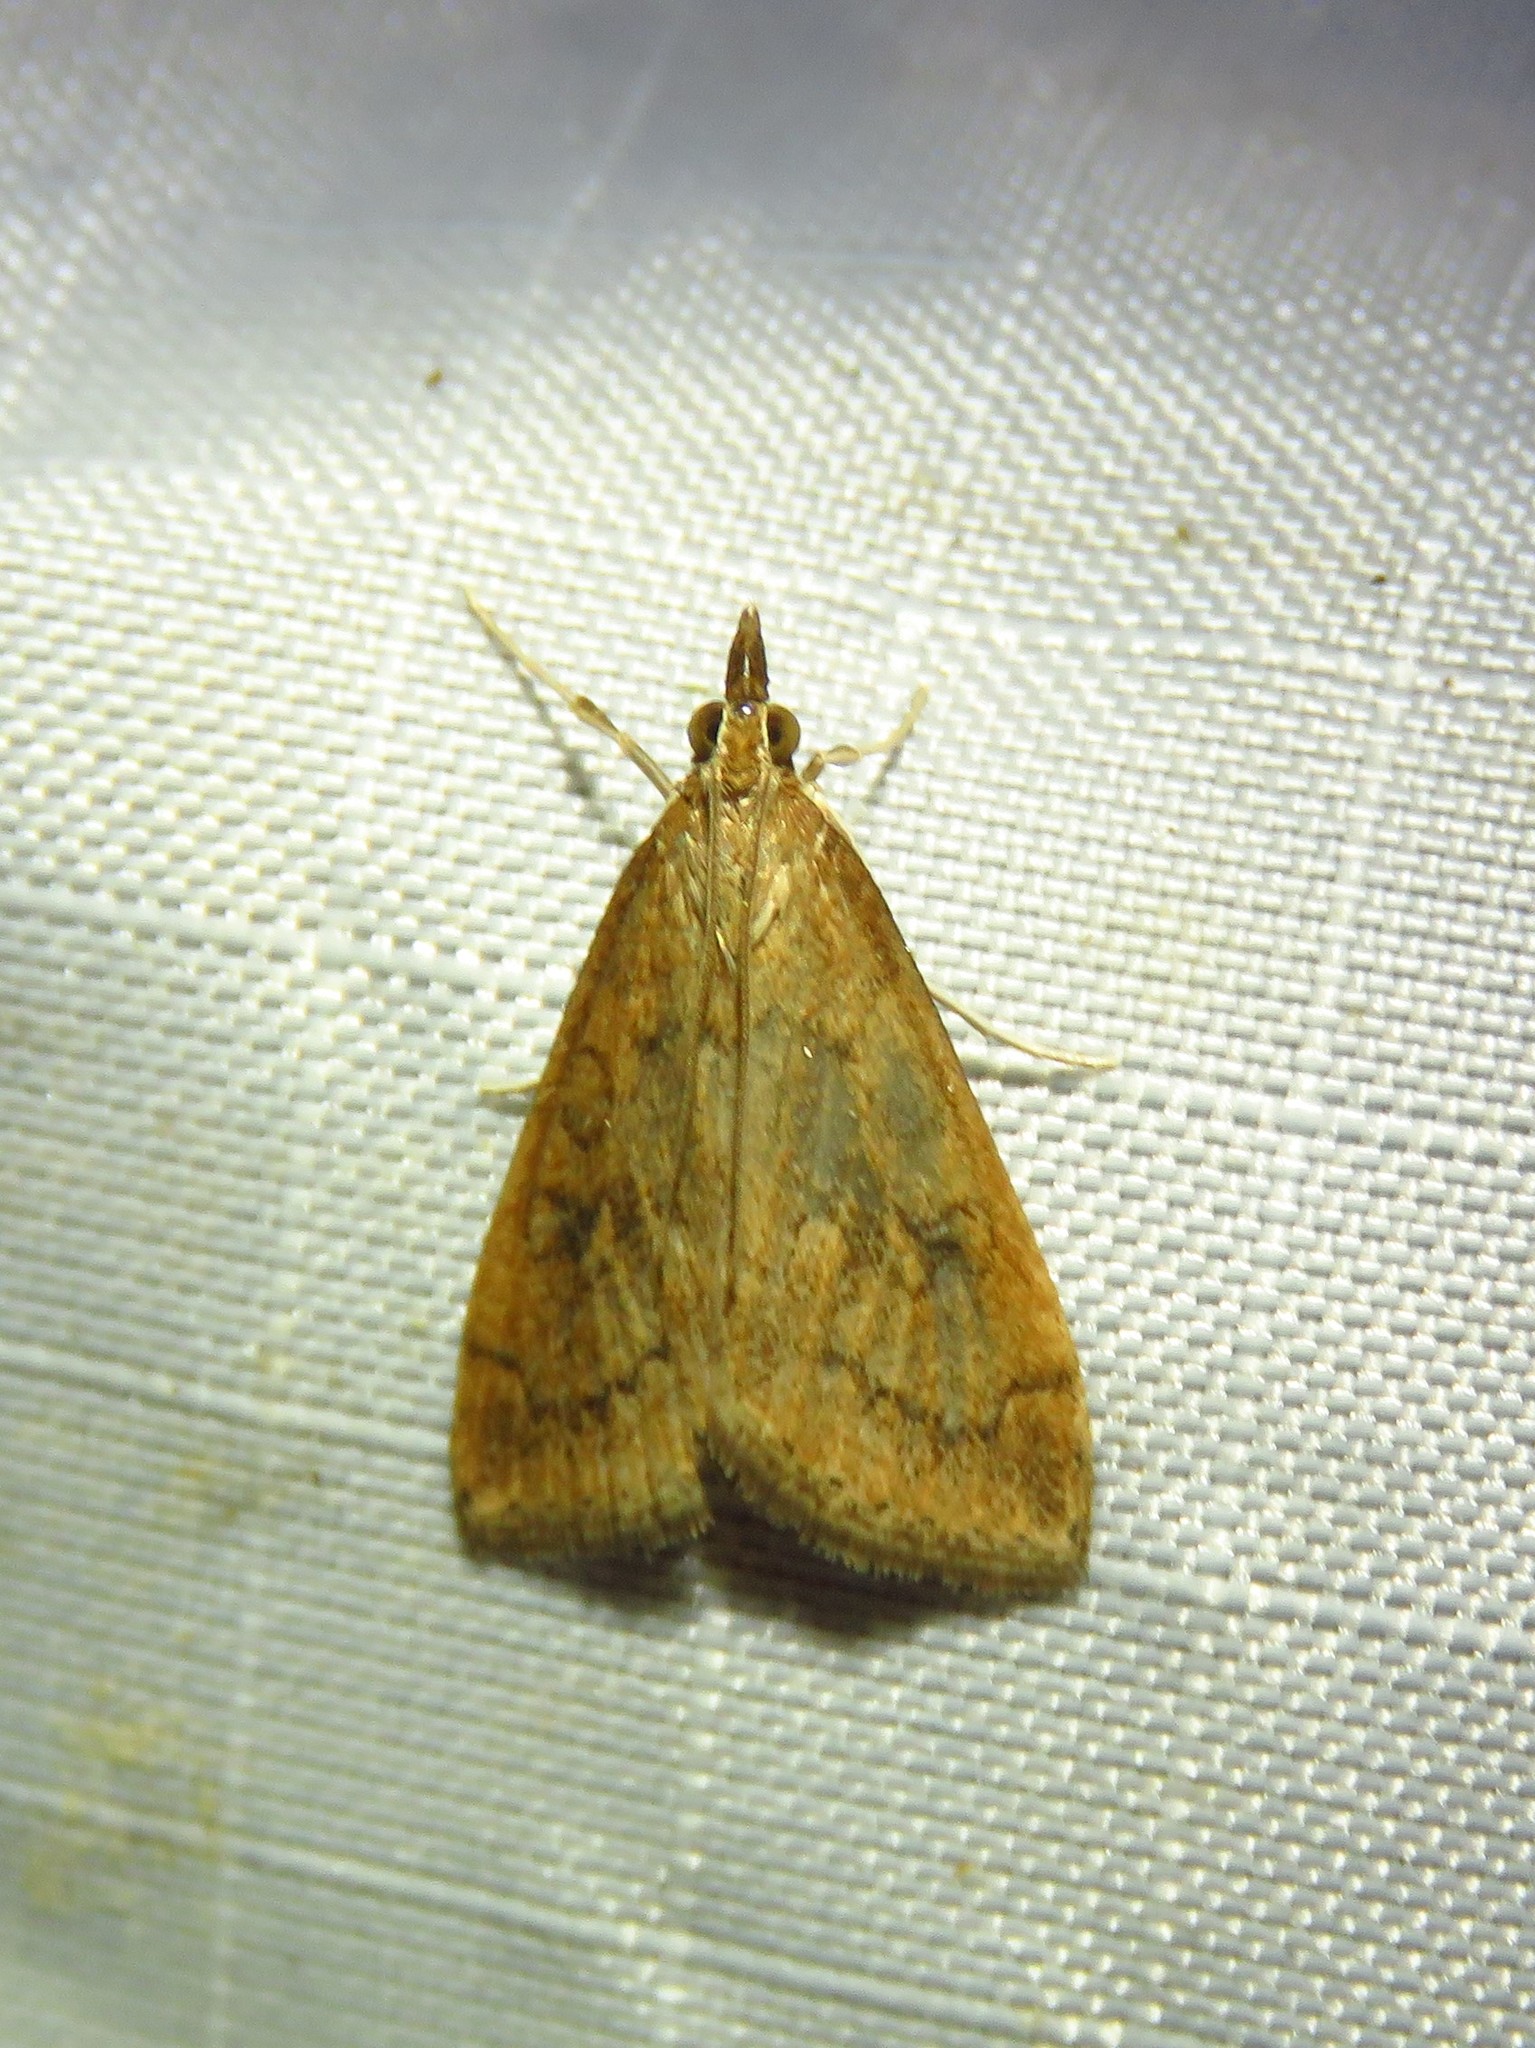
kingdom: Animalia
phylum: Arthropoda
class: Insecta
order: Lepidoptera
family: Crambidae
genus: Udea
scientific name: Udea rubigalis
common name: Celery leaftier moth
